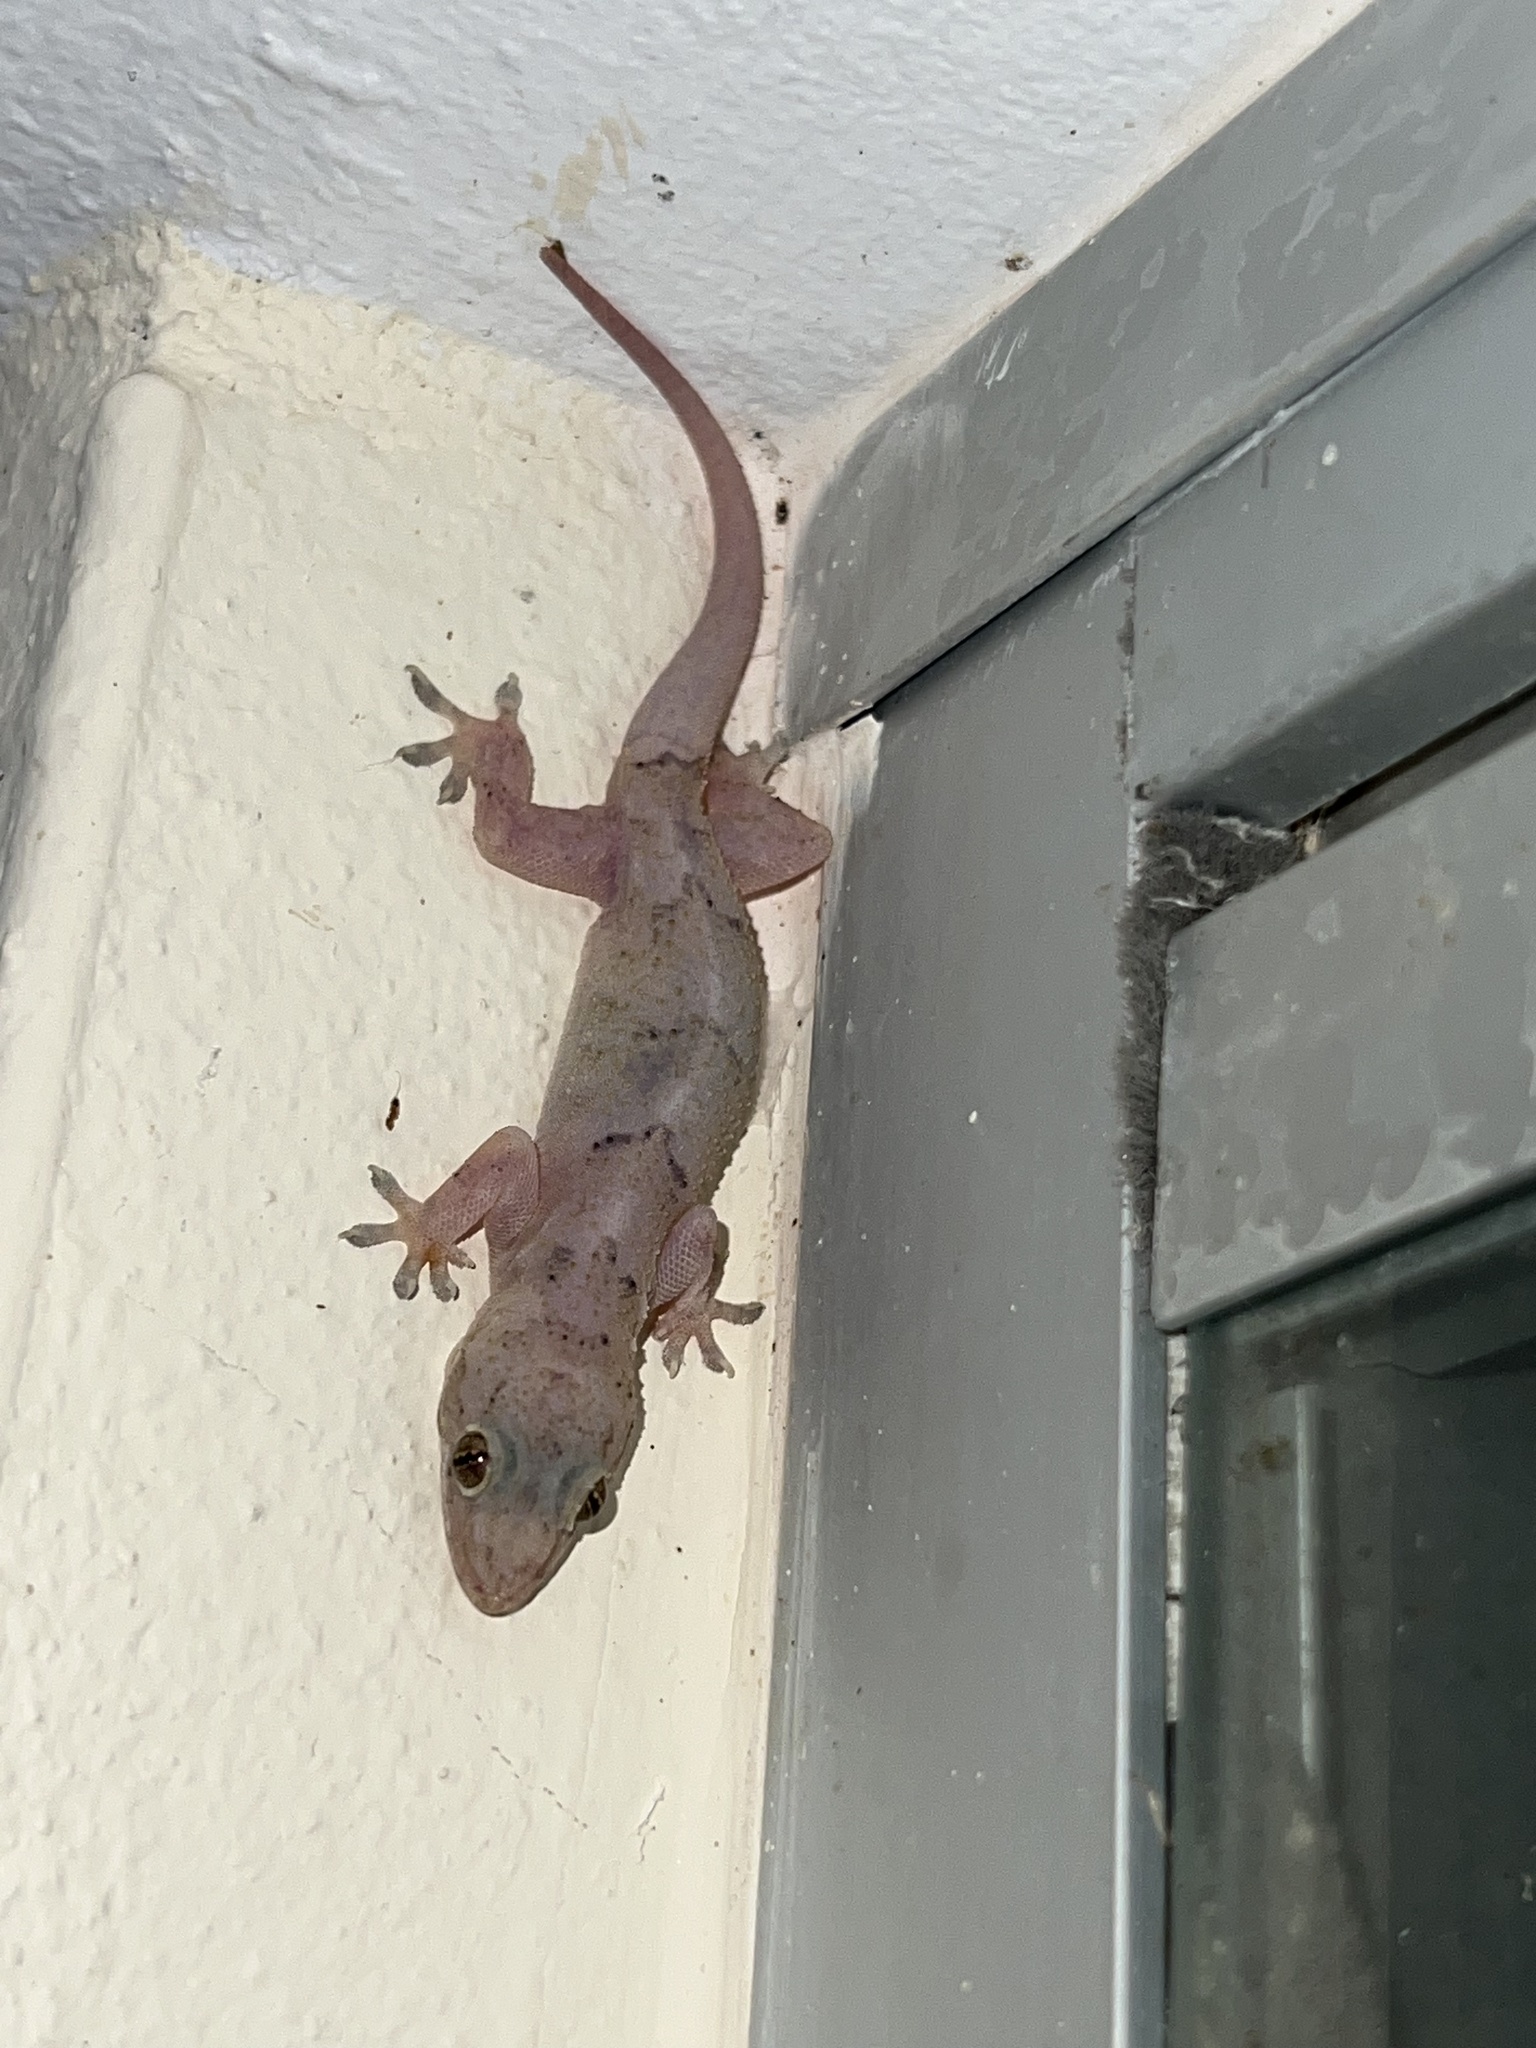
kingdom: Animalia
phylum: Chordata
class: Squamata
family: Gekkonidae
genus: Hemidactylus
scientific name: Hemidactylus mabouia
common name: House gecko
